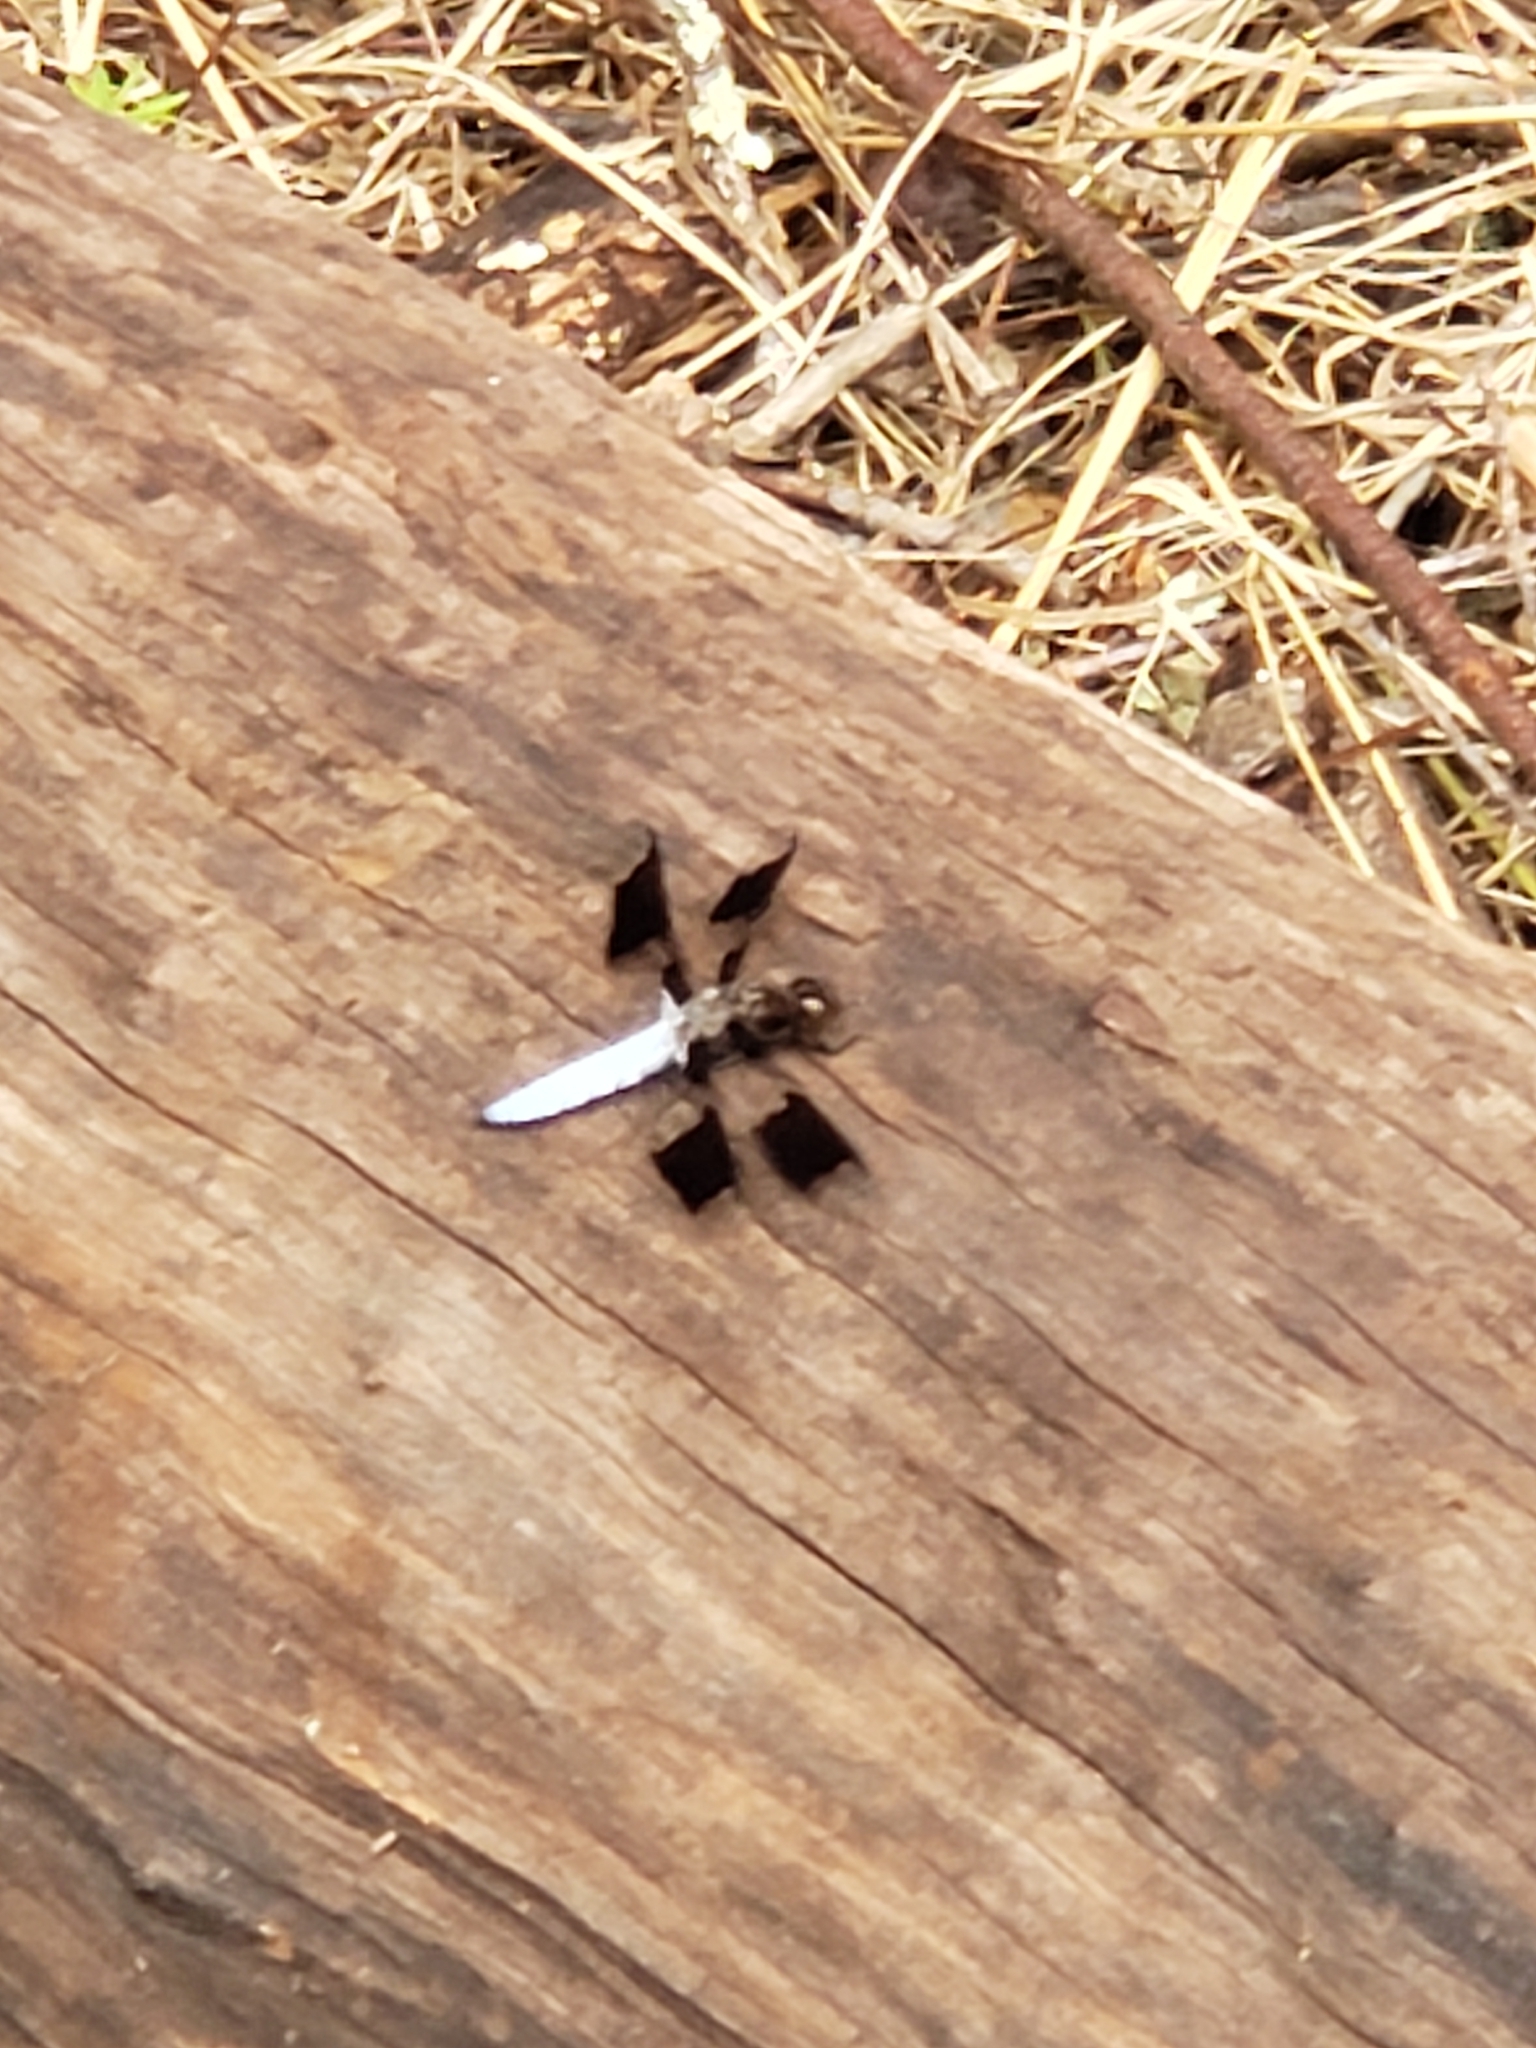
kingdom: Animalia
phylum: Arthropoda
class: Insecta
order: Odonata
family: Libellulidae
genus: Plathemis
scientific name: Plathemis lydia
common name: Common whitetail
